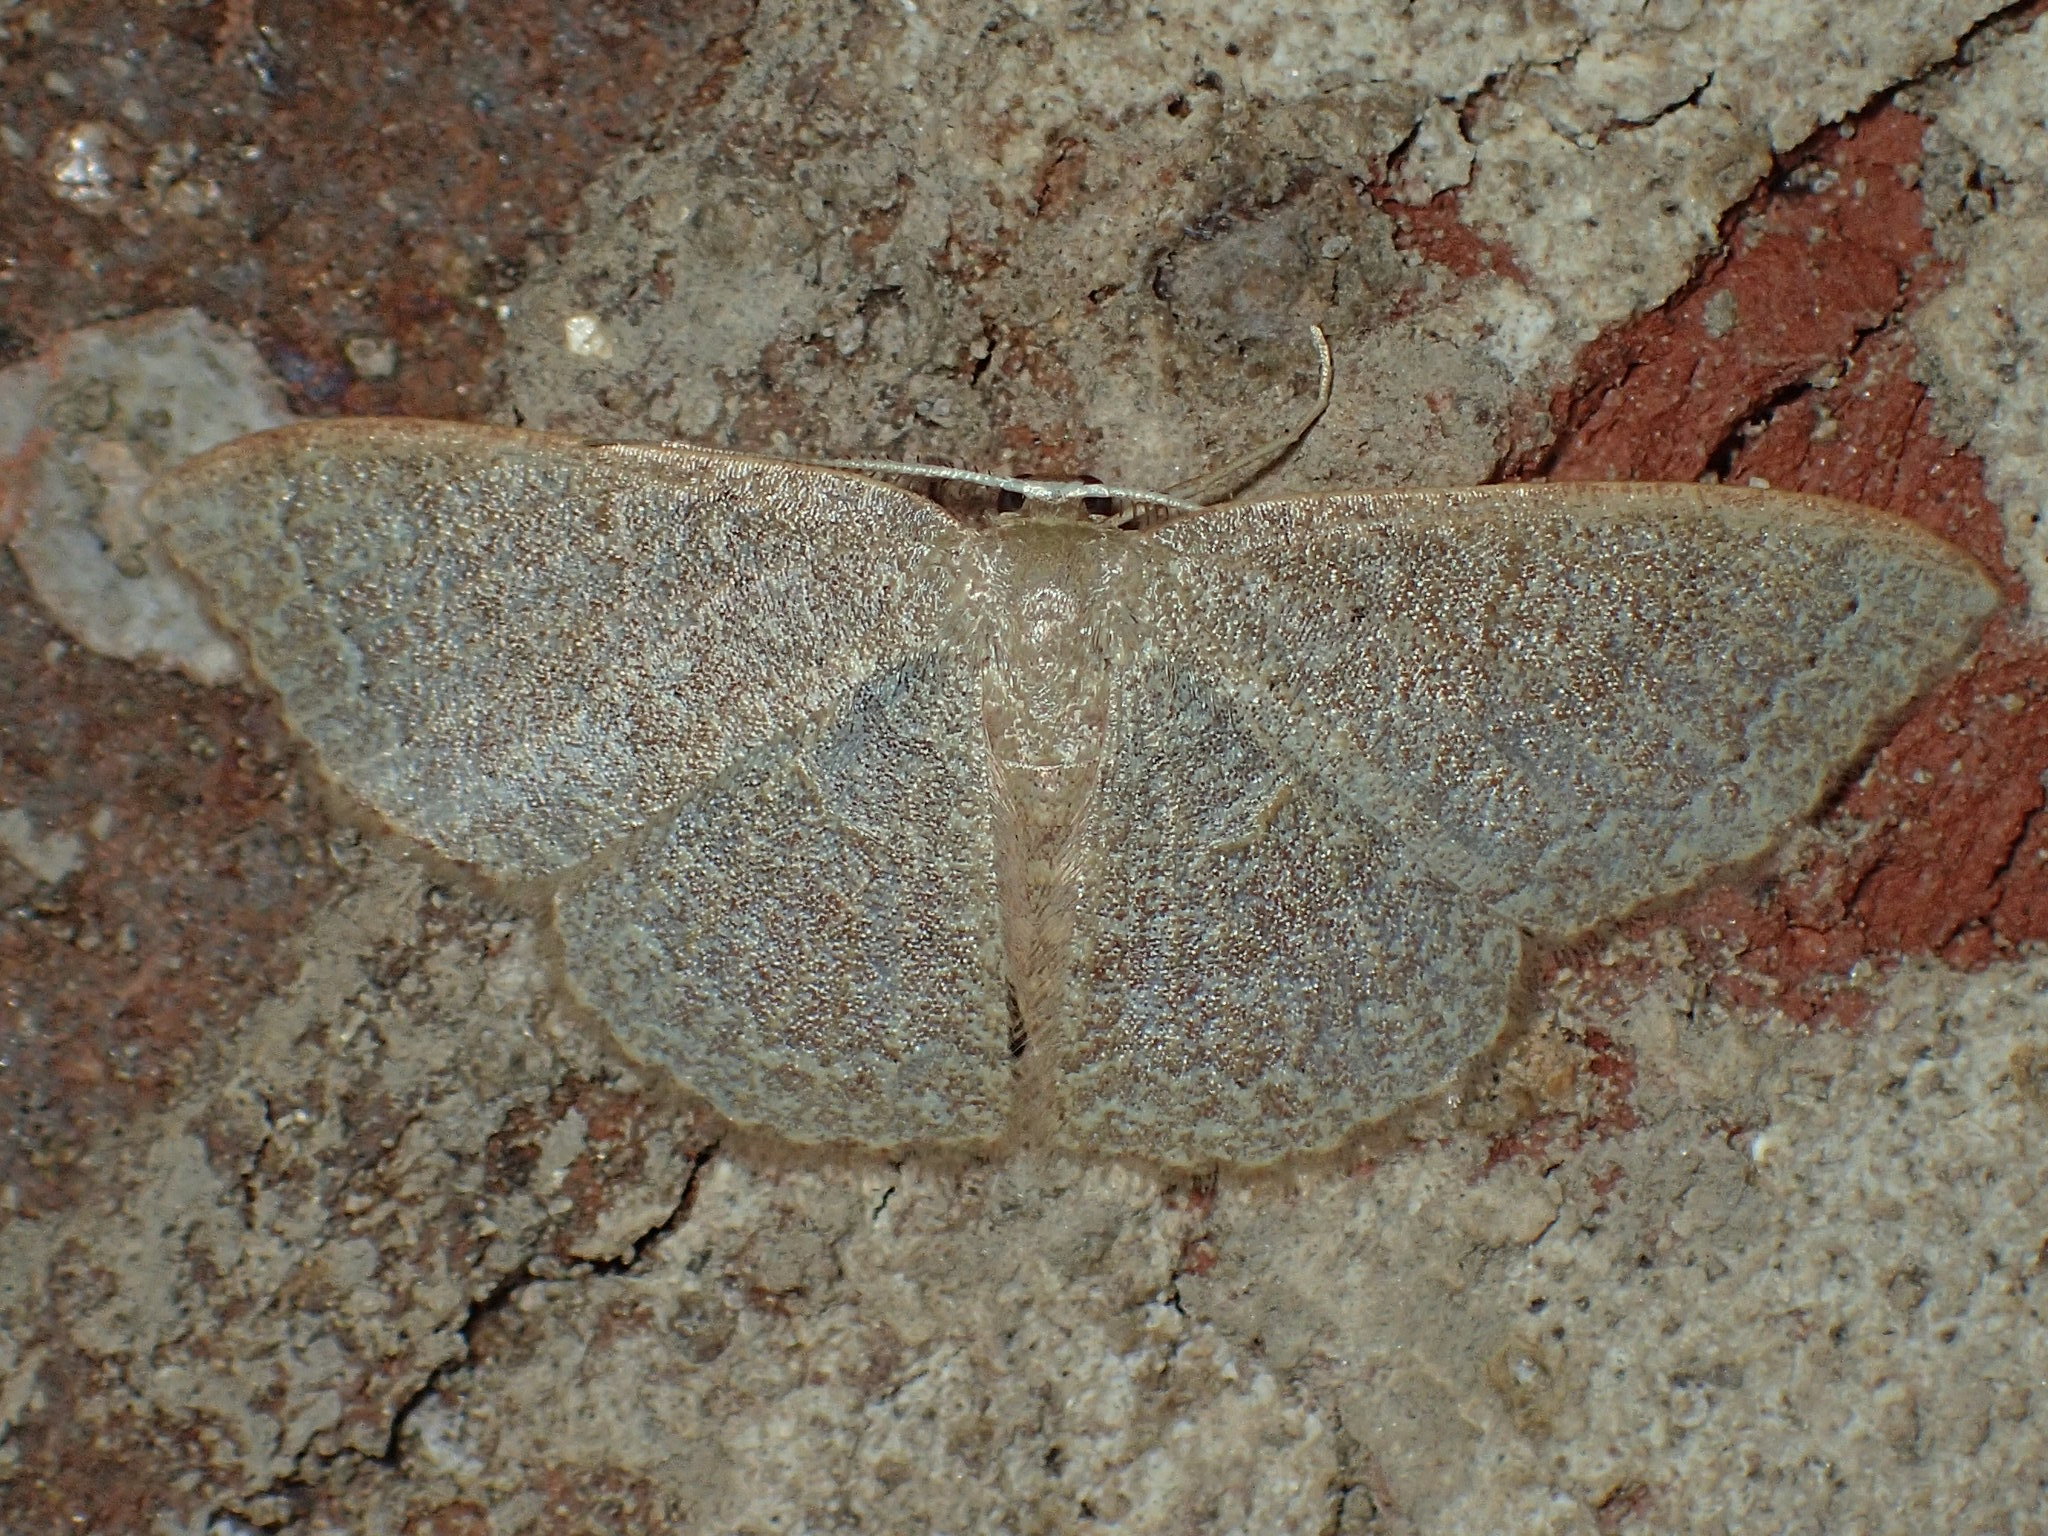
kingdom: Animalia
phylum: Arthropoda
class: Insecta
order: Lepidoptera
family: Geometridae
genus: Pleuroprucha
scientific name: Pleuroprucha insulsaria
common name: Common tan wave
